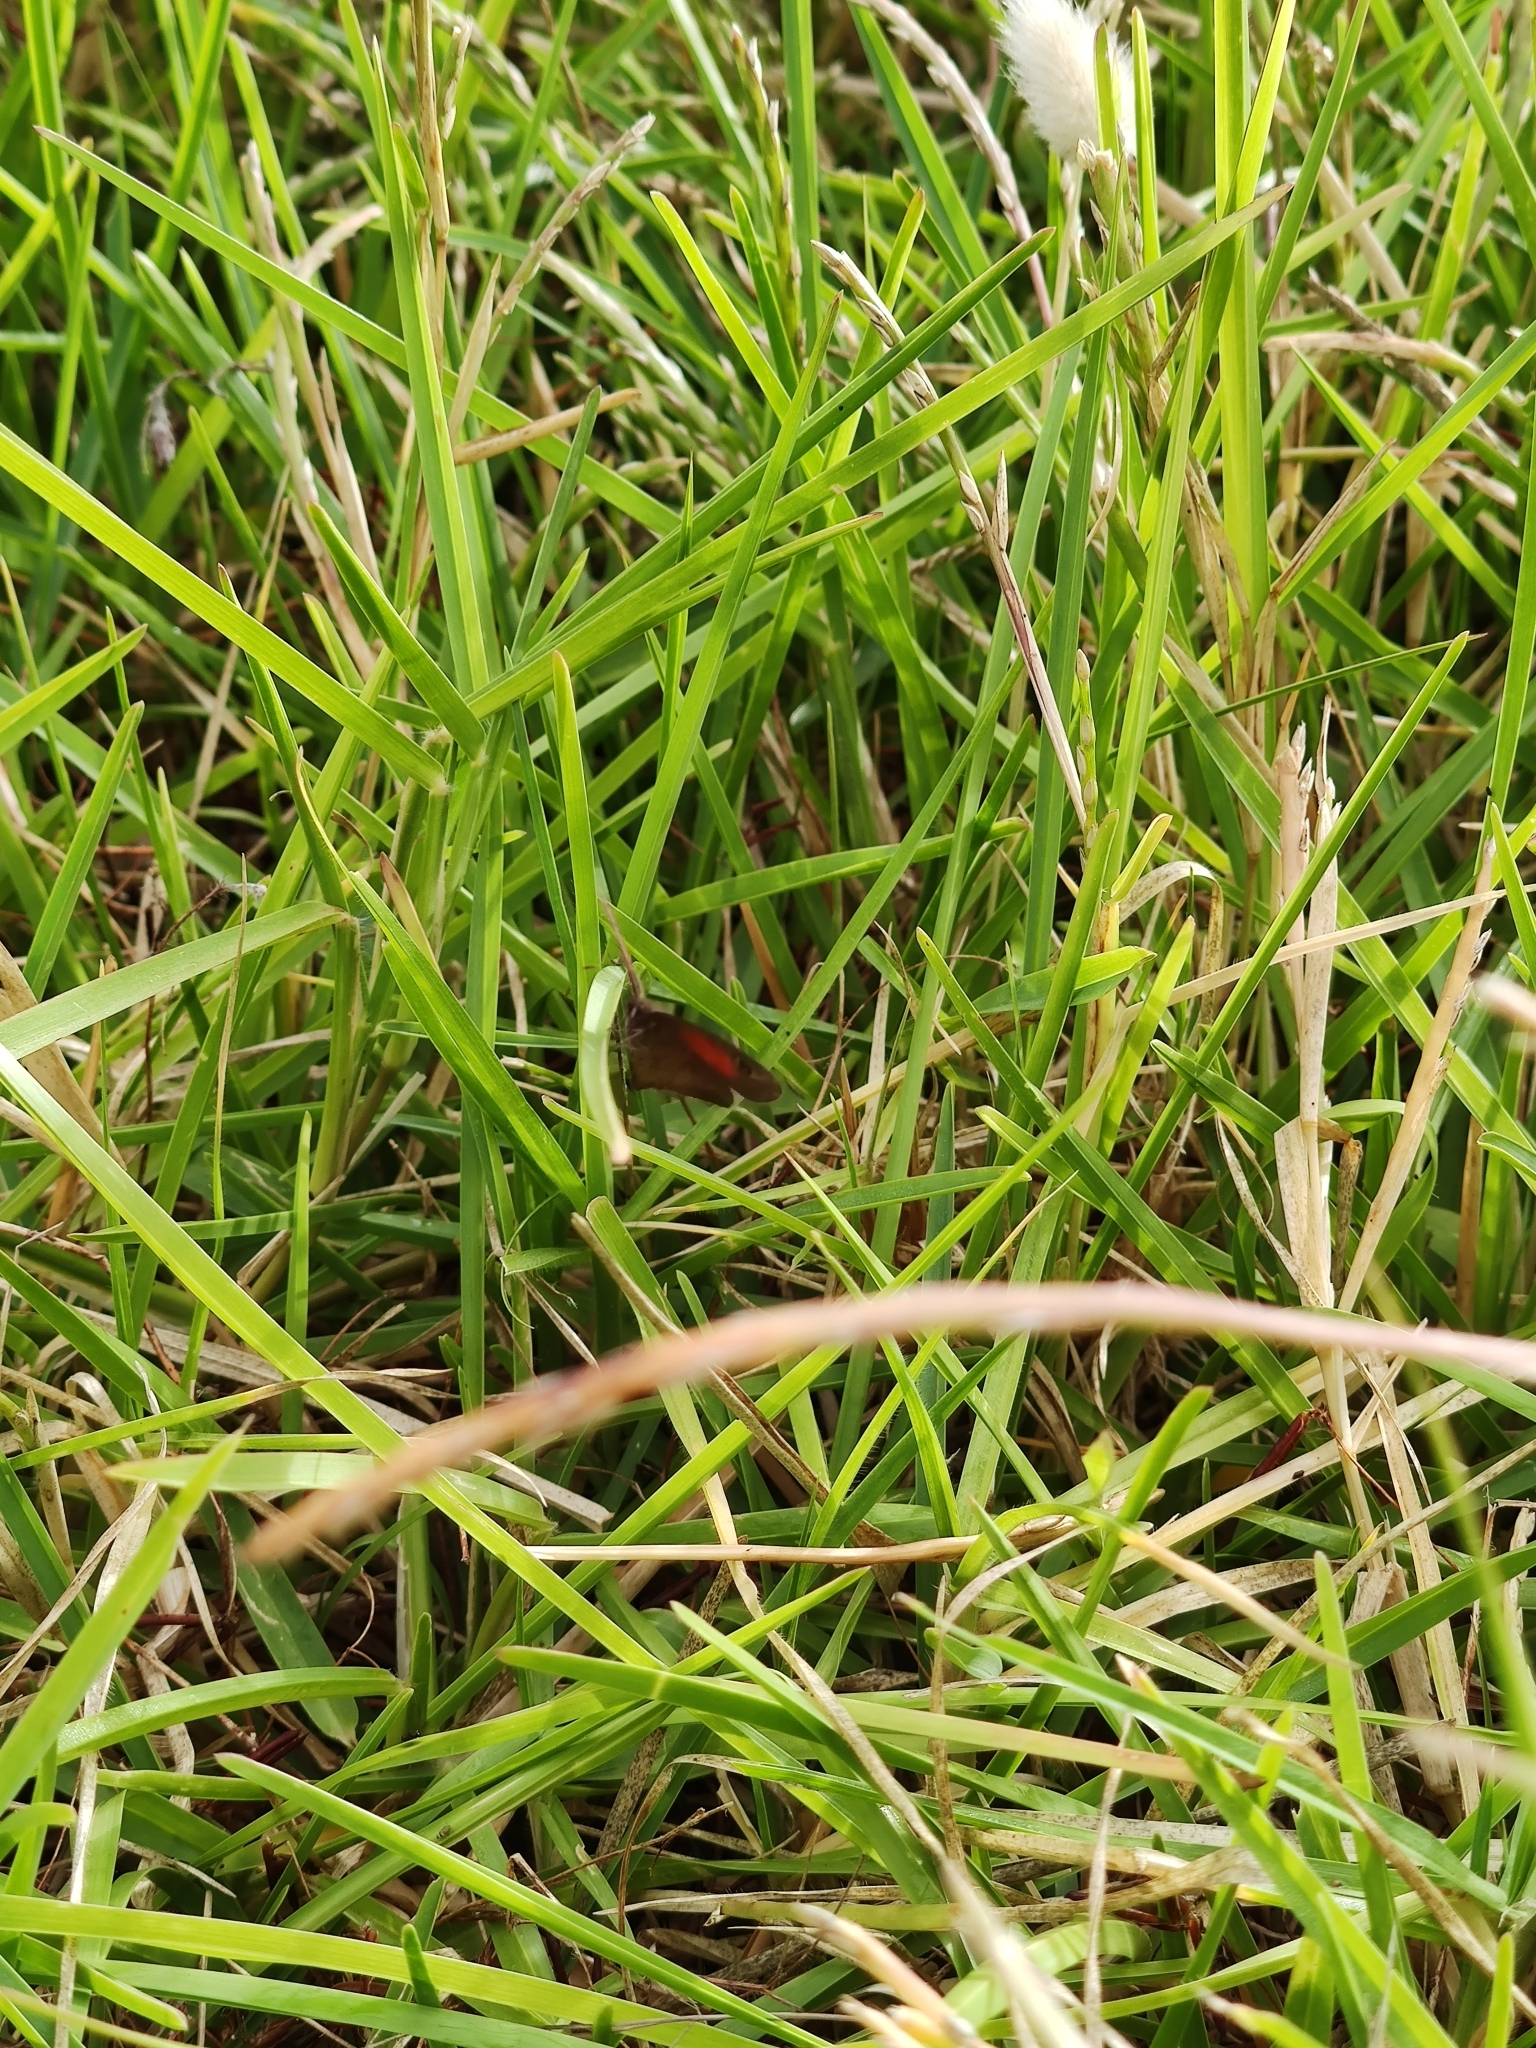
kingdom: Animalia
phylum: Arthropoda
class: Insecta
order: Lepidoptera
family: Nymphalidae
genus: Cassionympha
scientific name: Cassionympha cassius
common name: Rainforest brown
